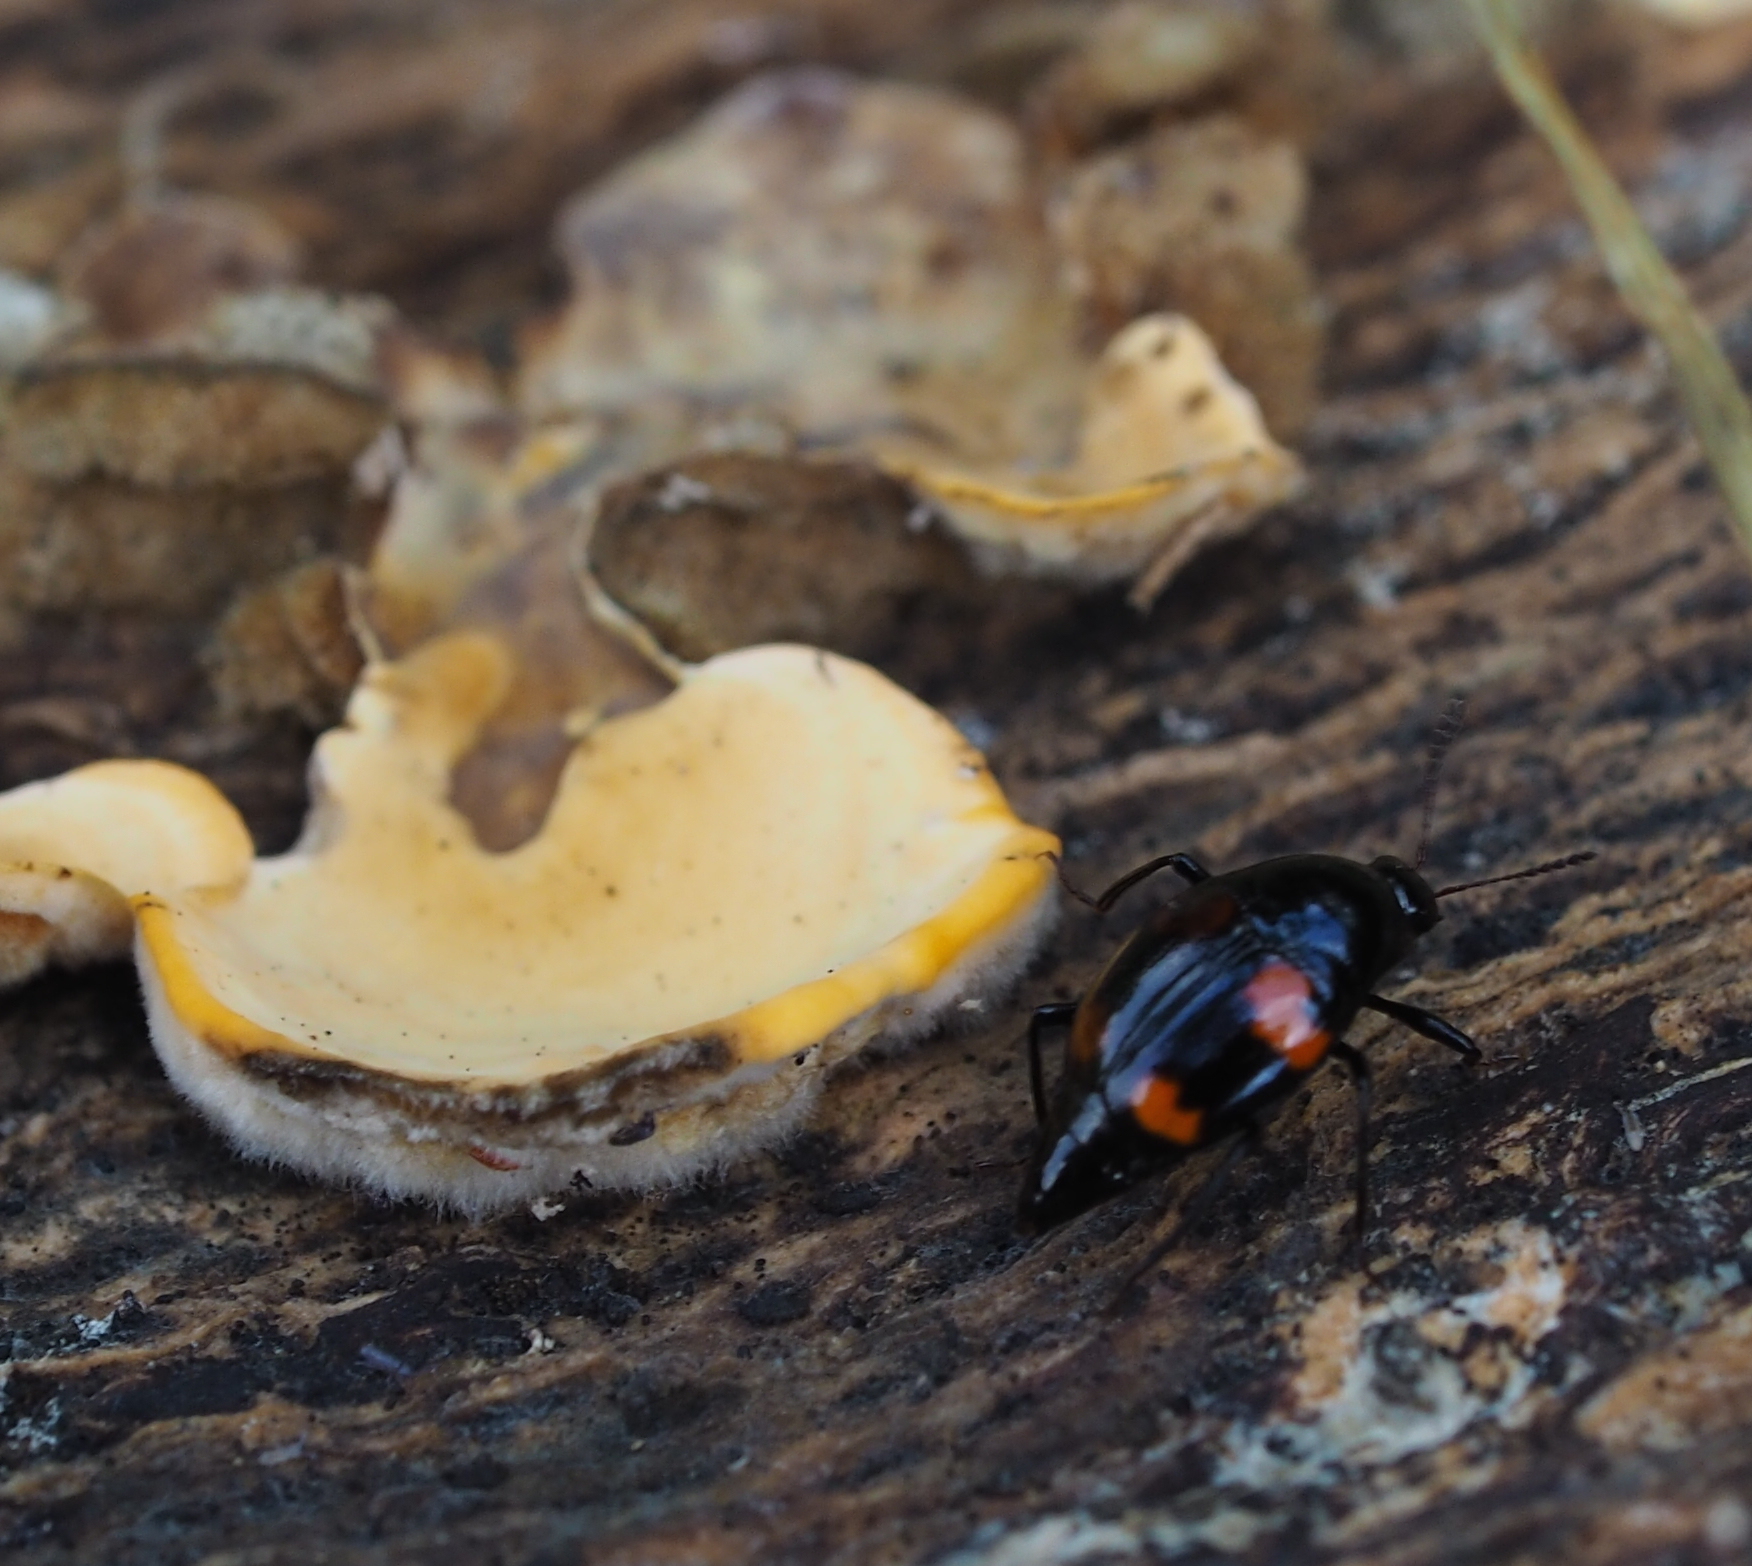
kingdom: Animalia
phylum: Arthropoda
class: Insecta
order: Coleoptera
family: Staphylinidae
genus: Scaphidium
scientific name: Scaphidium quadrimaculatum
